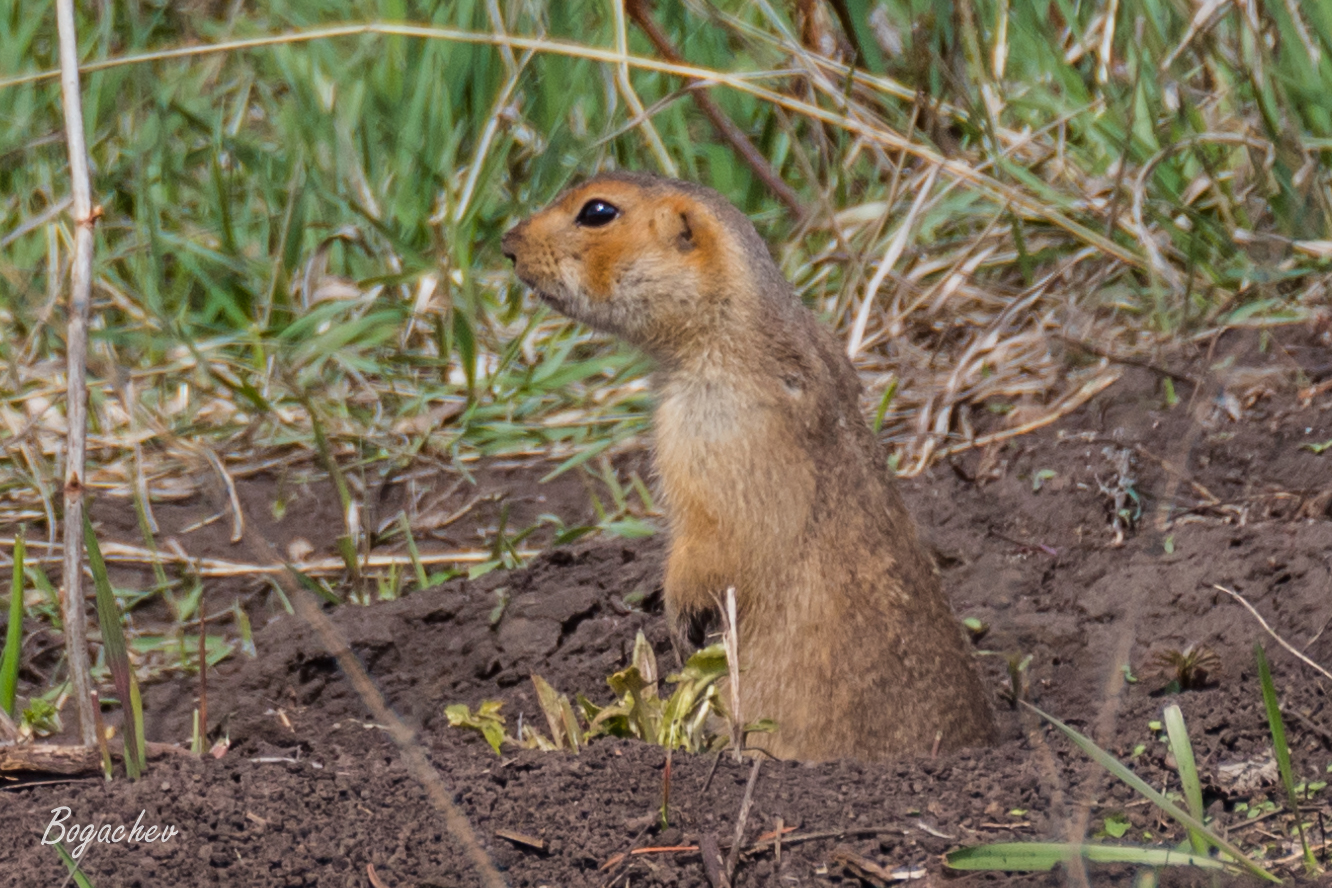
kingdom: Animalia
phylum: Chordata
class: Mammalia
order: Rodentia
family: Sciuridae
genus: Spermophilus
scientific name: Spermophilus major
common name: Russet ground squirrel
